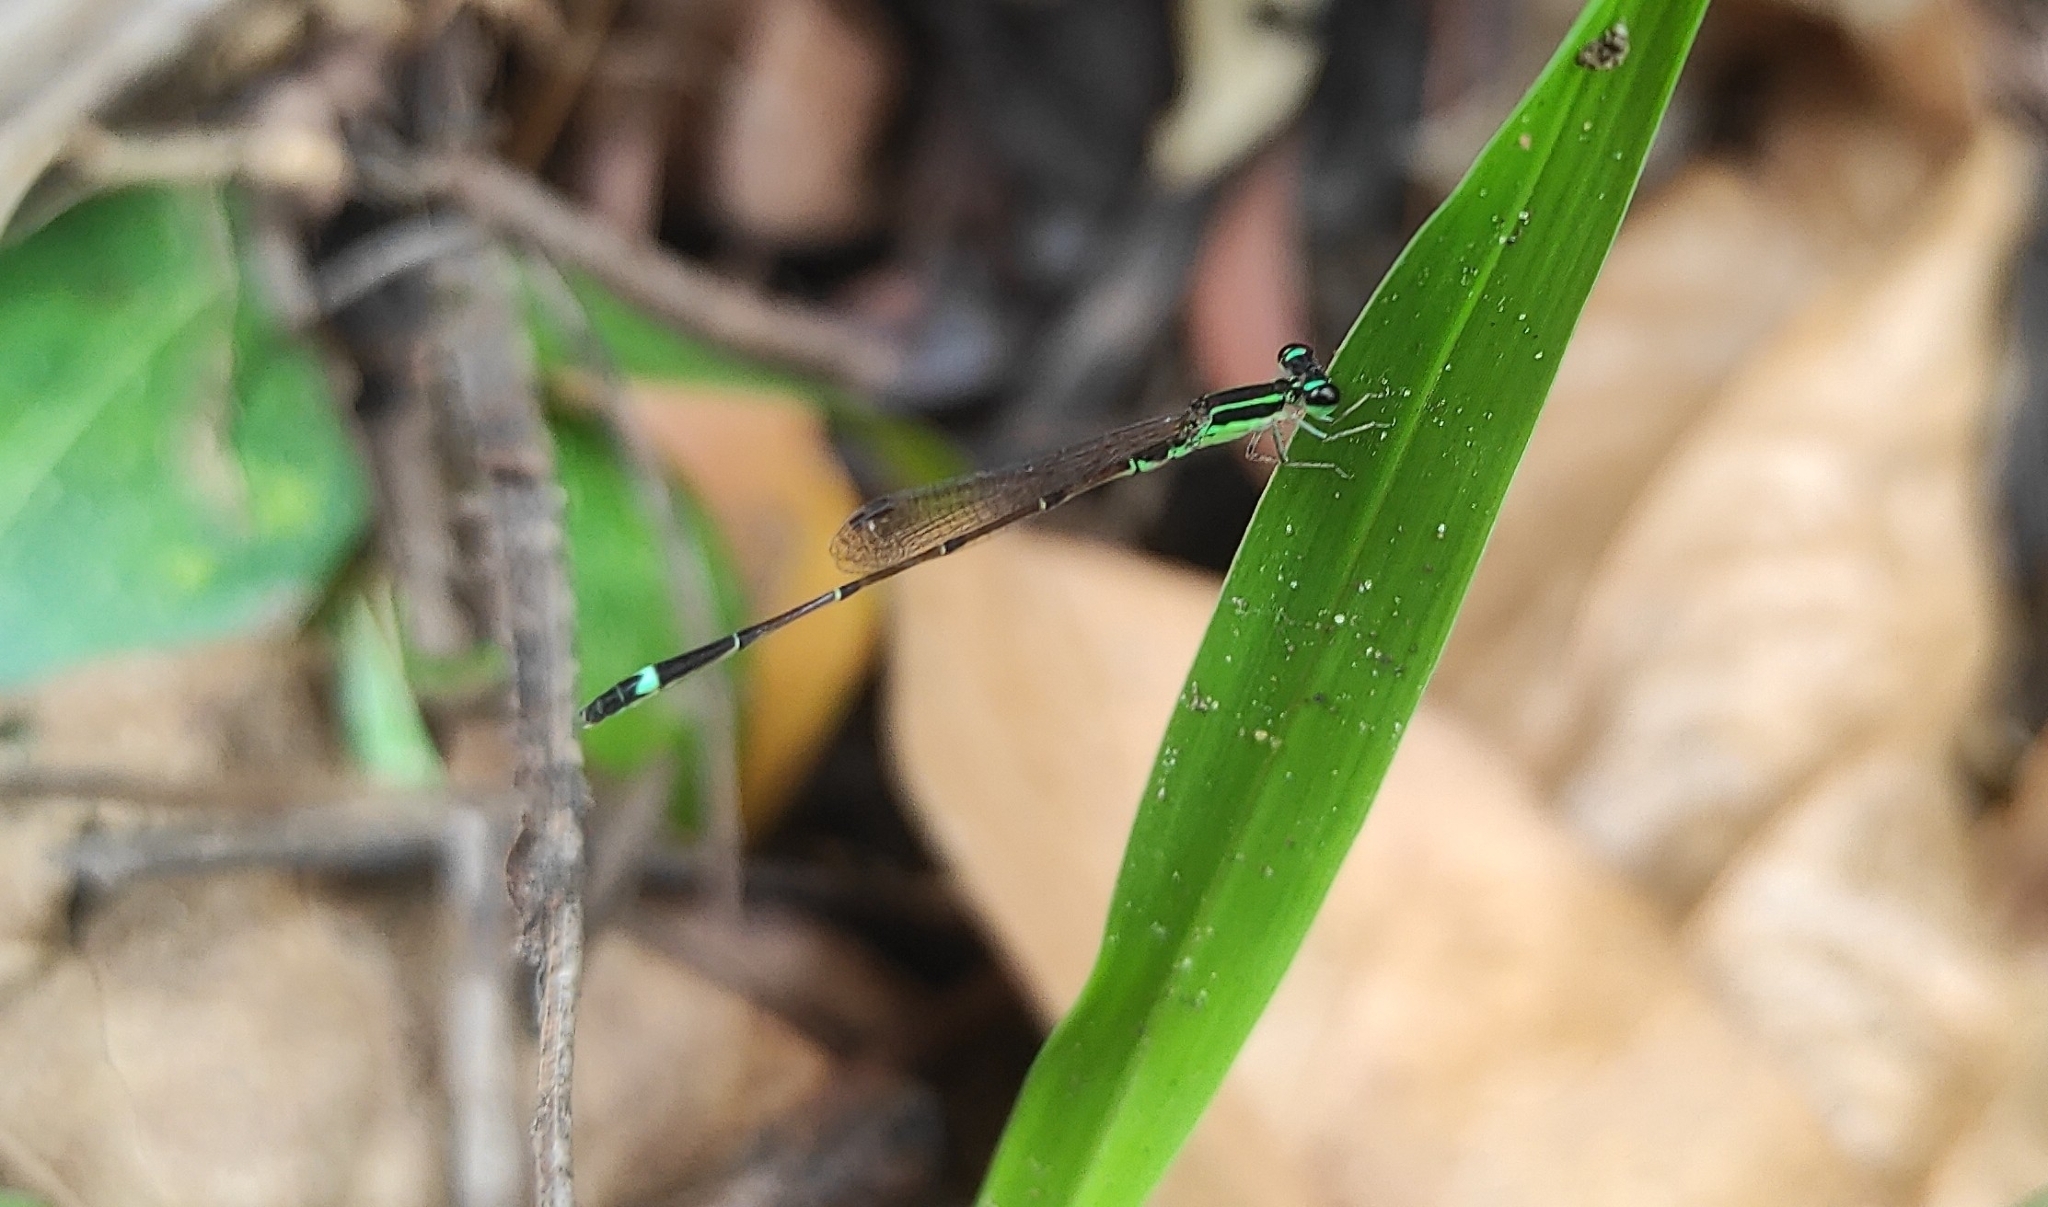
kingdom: Animalia
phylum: Arthropoda
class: Insecta
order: Odonata
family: Coenagrionidae
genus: Mortonagrion
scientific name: Mortonagrion varralli
